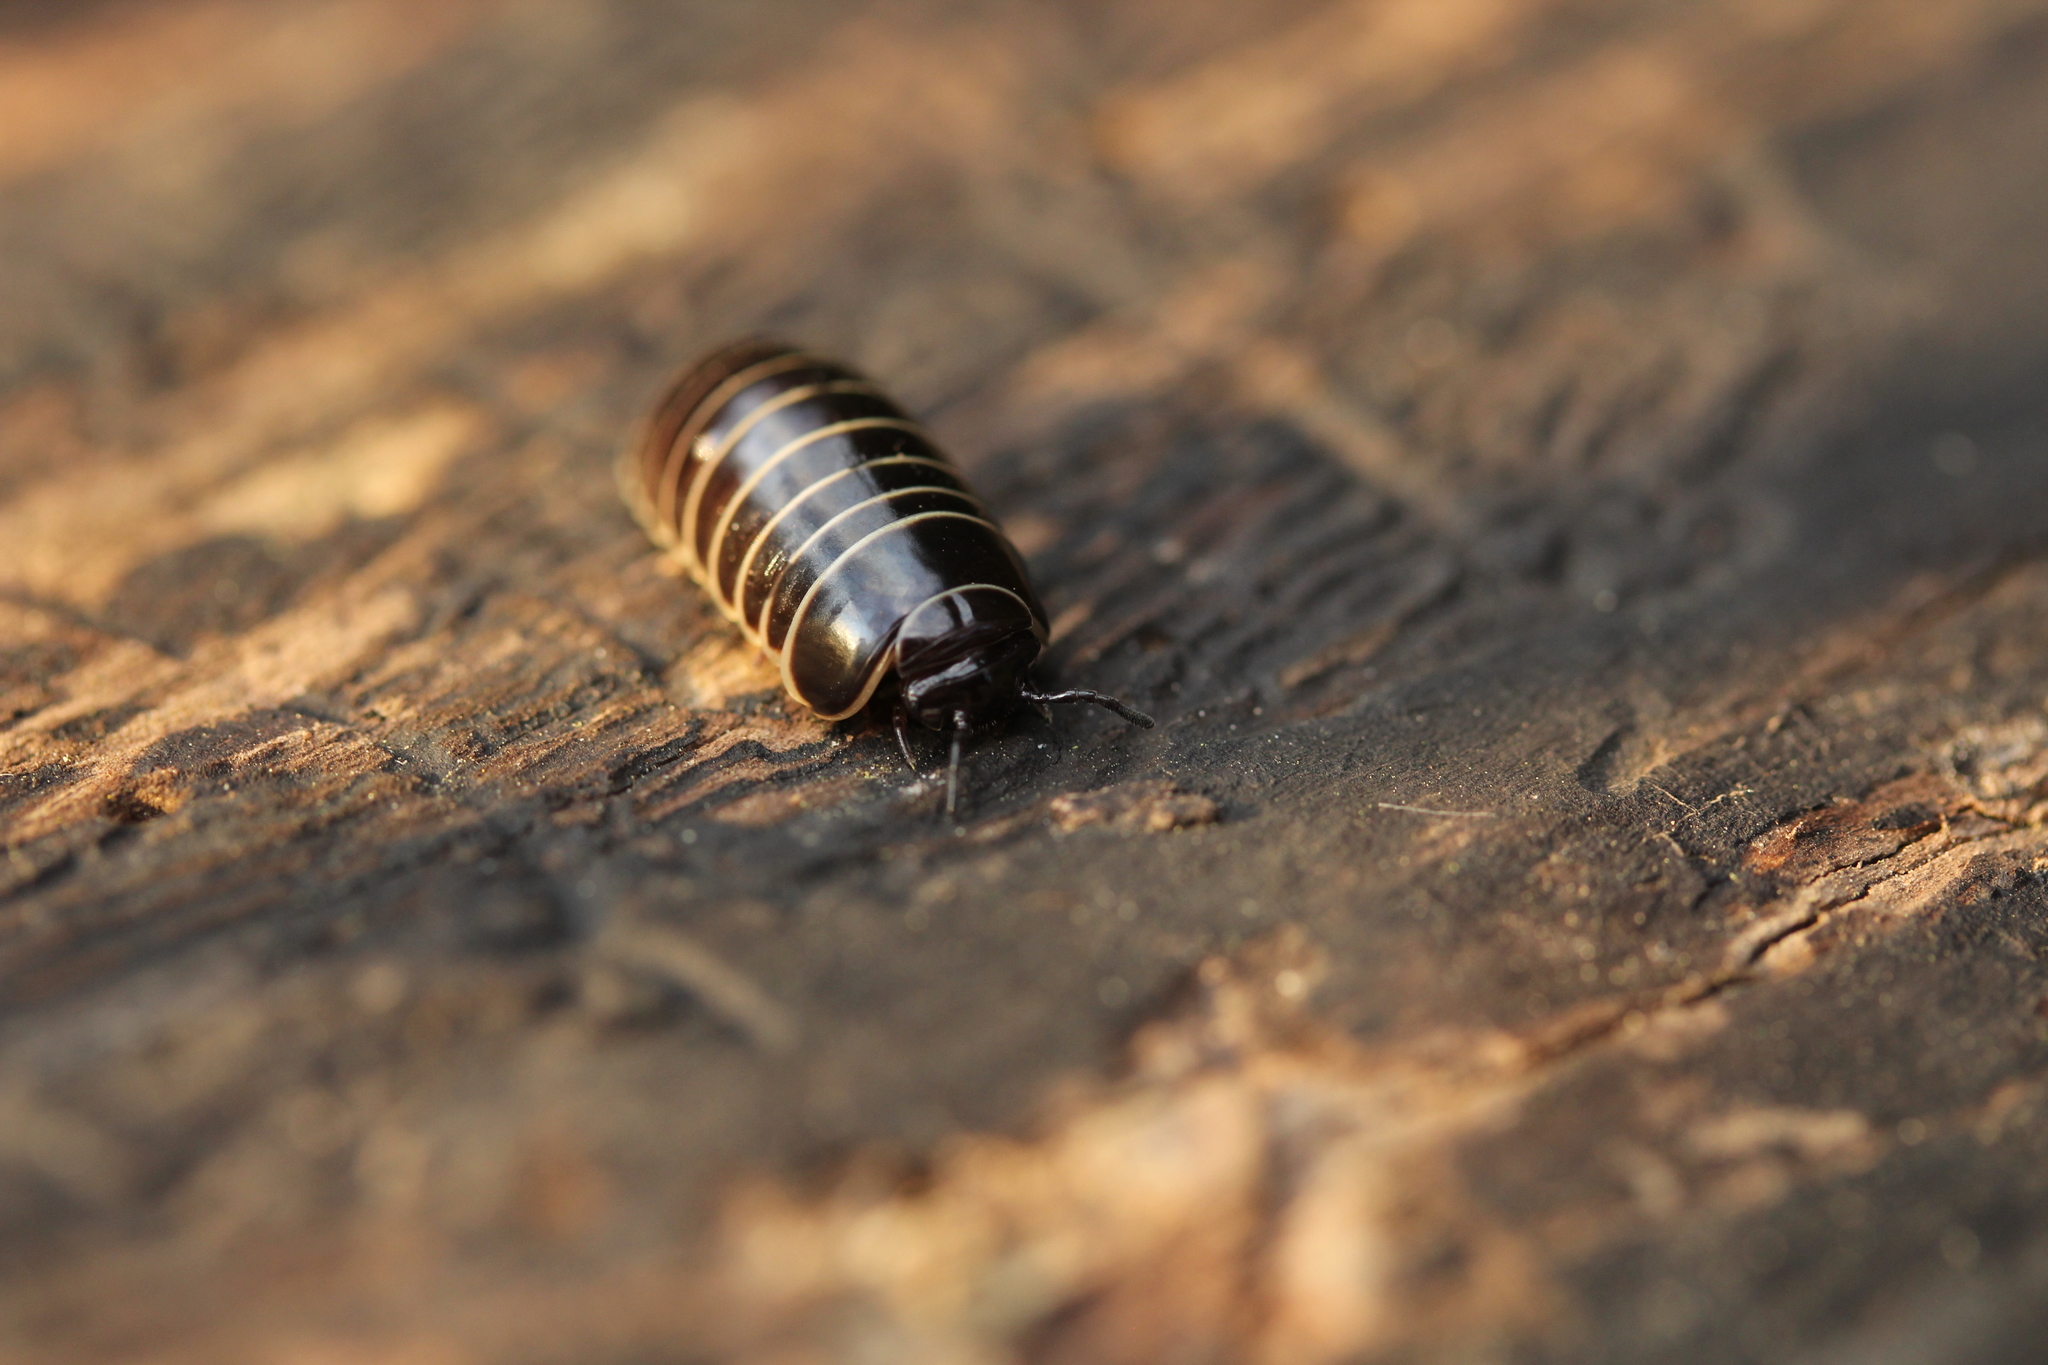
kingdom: Animalia
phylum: Arthropoda
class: Diplopoda
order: Glomerida
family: Glomeridae
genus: Glomeris
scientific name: Glomeris marginata
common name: Bordered pill millipede
